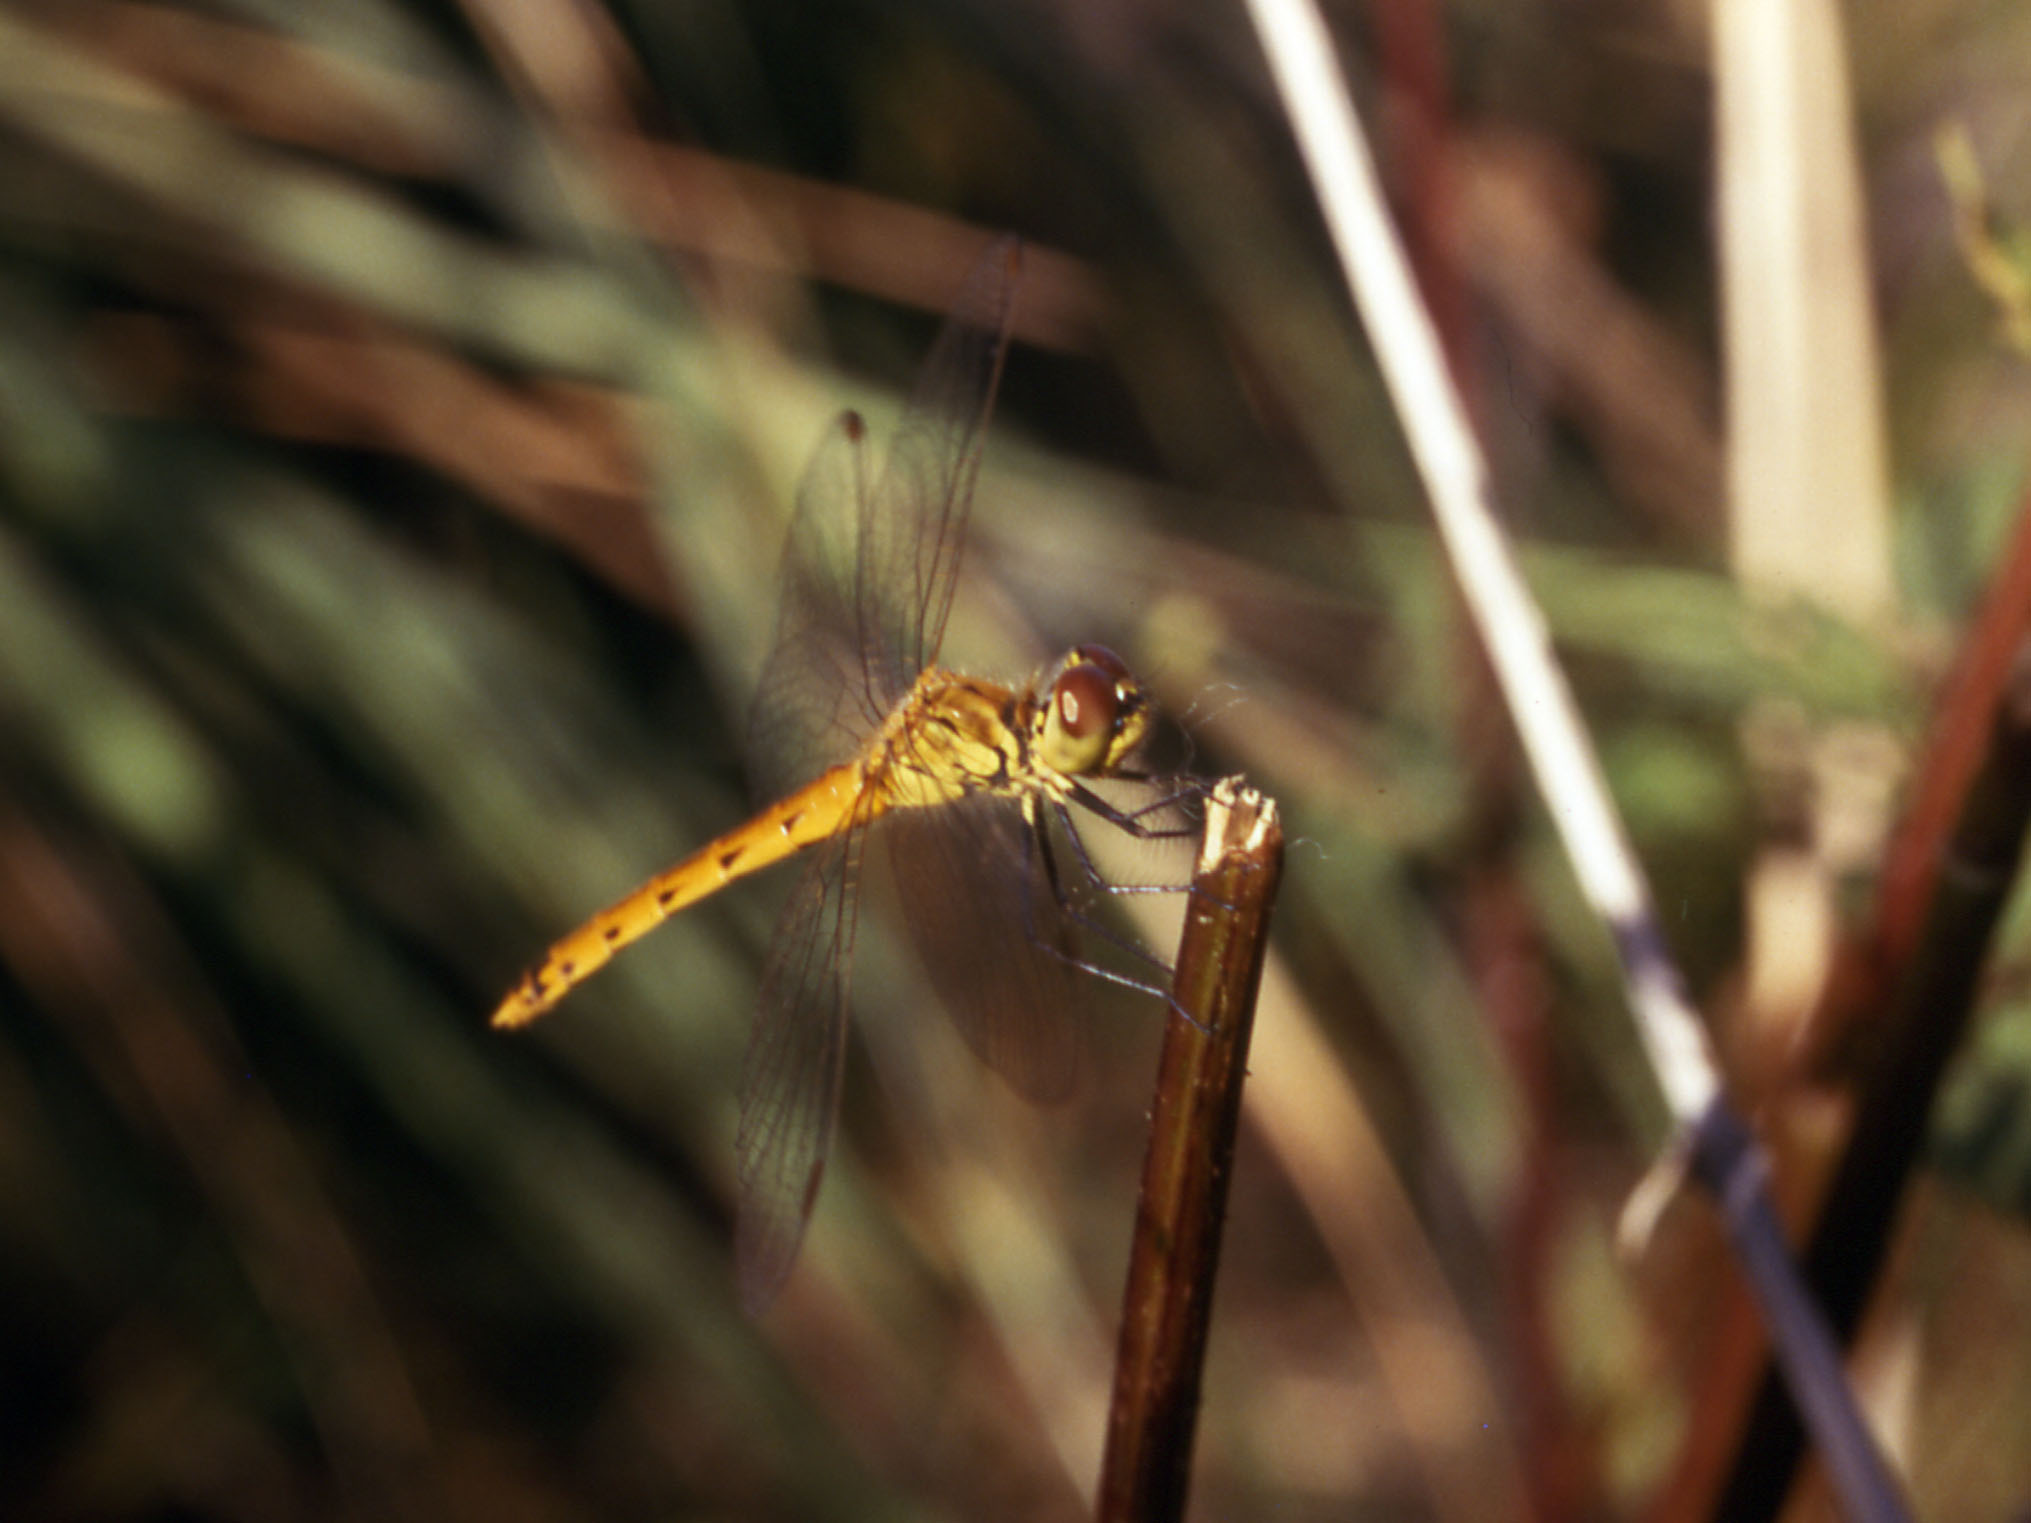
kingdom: Animalia
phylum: Arthropoda
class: Insecta
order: Odonata
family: Libellulidae
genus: Sympetrum
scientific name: Sympetrum depressiusculum
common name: Spotted darter
